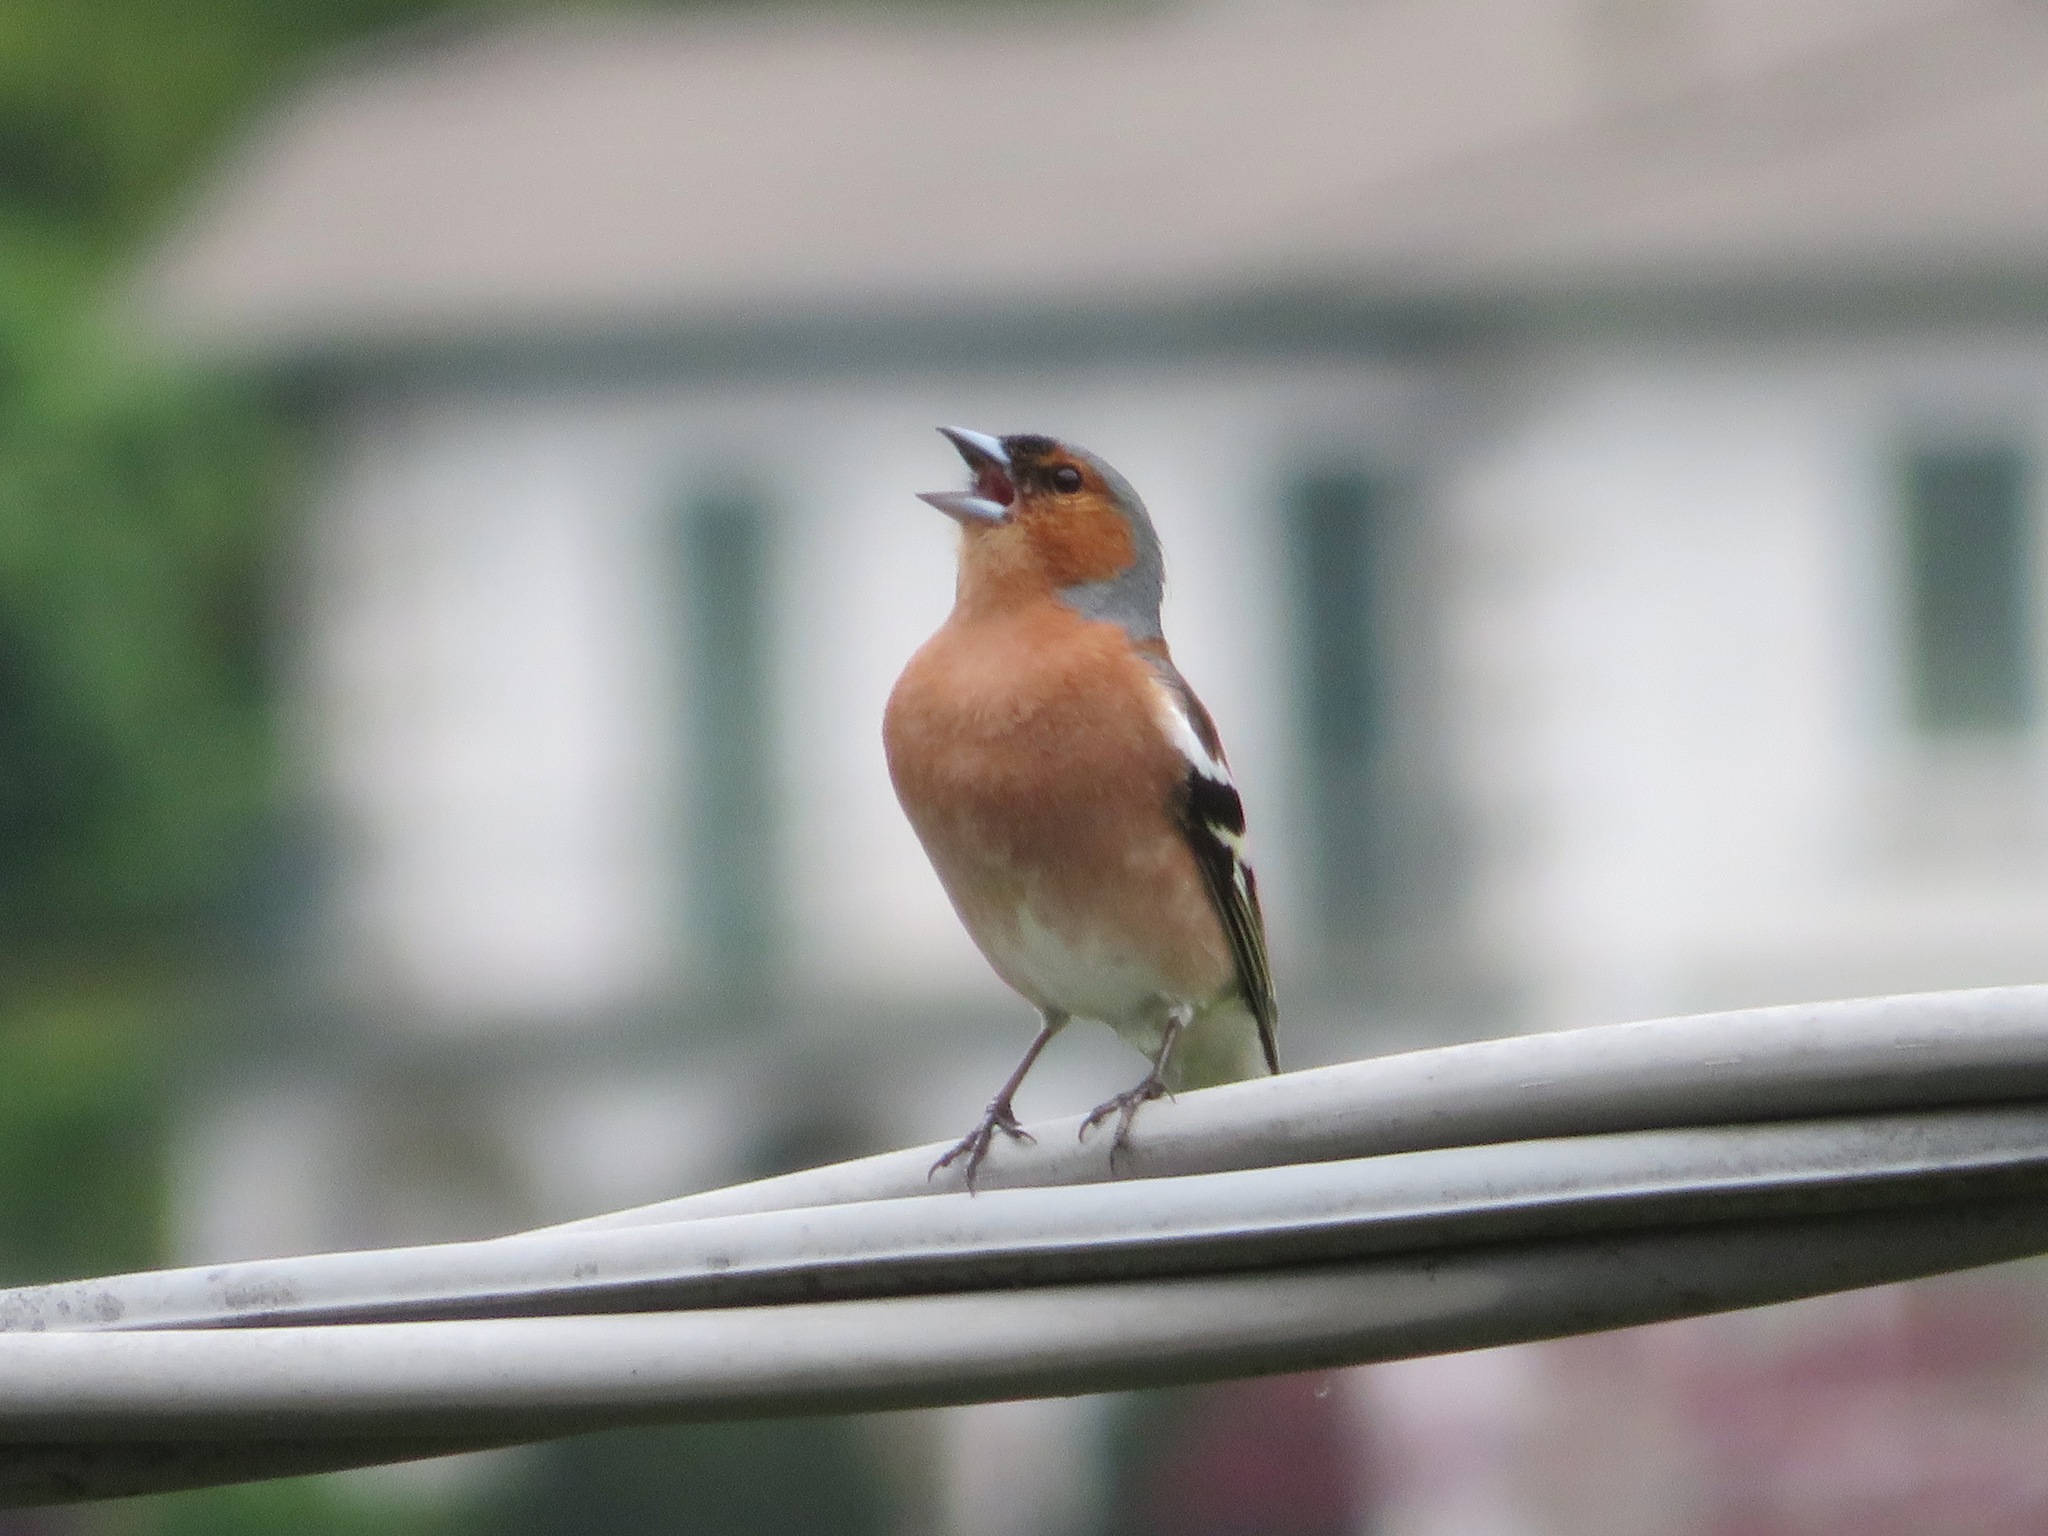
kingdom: Animalia
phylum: Chordata
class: Aves
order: Passeriformes
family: Fringillidae
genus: Fringilla
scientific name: Fringilla coelebs
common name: Common chaffinch
